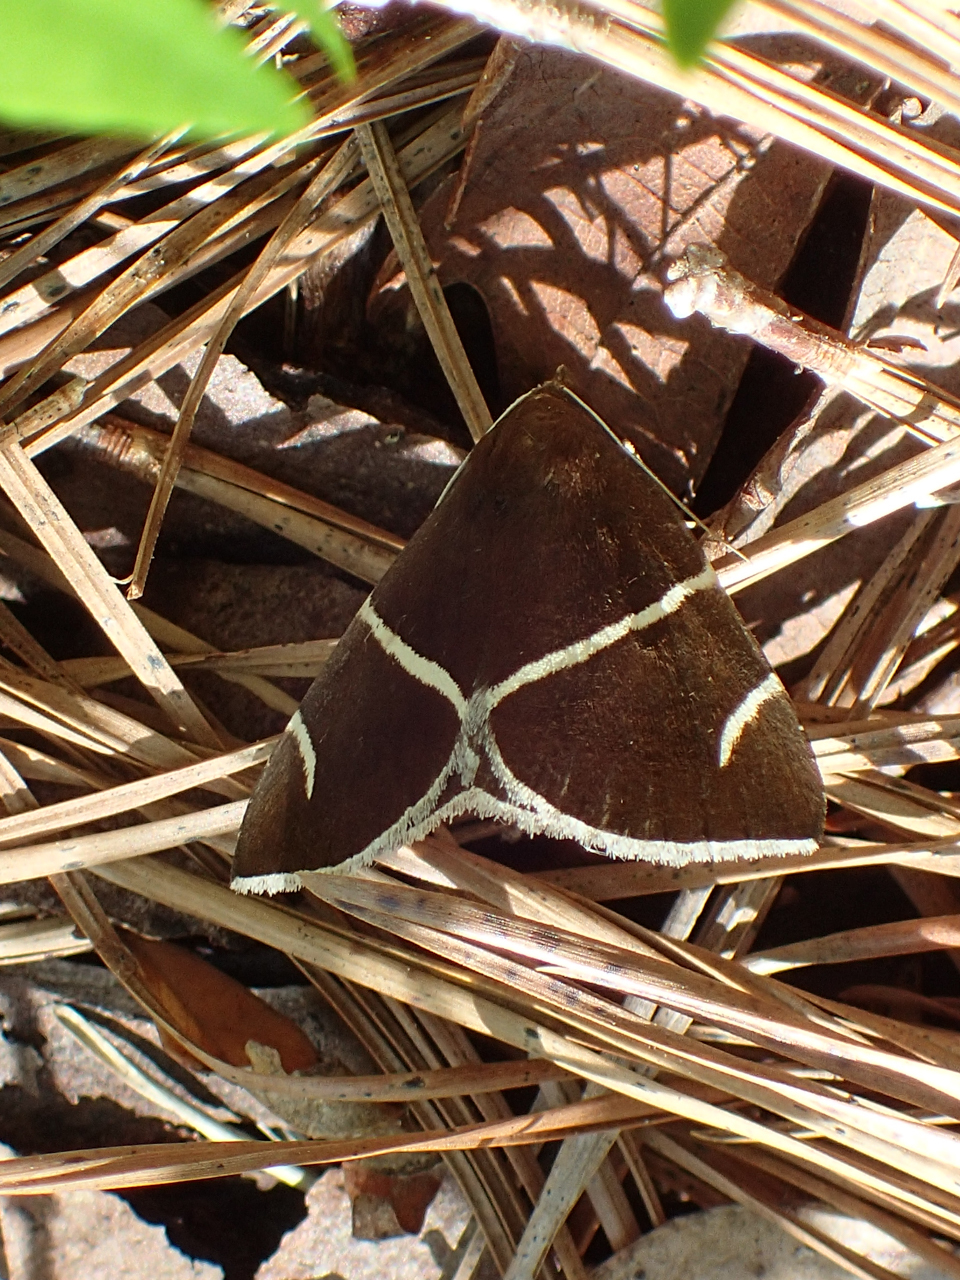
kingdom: Animalia
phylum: Arthropoda
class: Insecta
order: Lepidoptera
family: Erebidae
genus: Argyrostrotis
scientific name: Argyrostrotis anilis
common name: Short-lined chocolate
